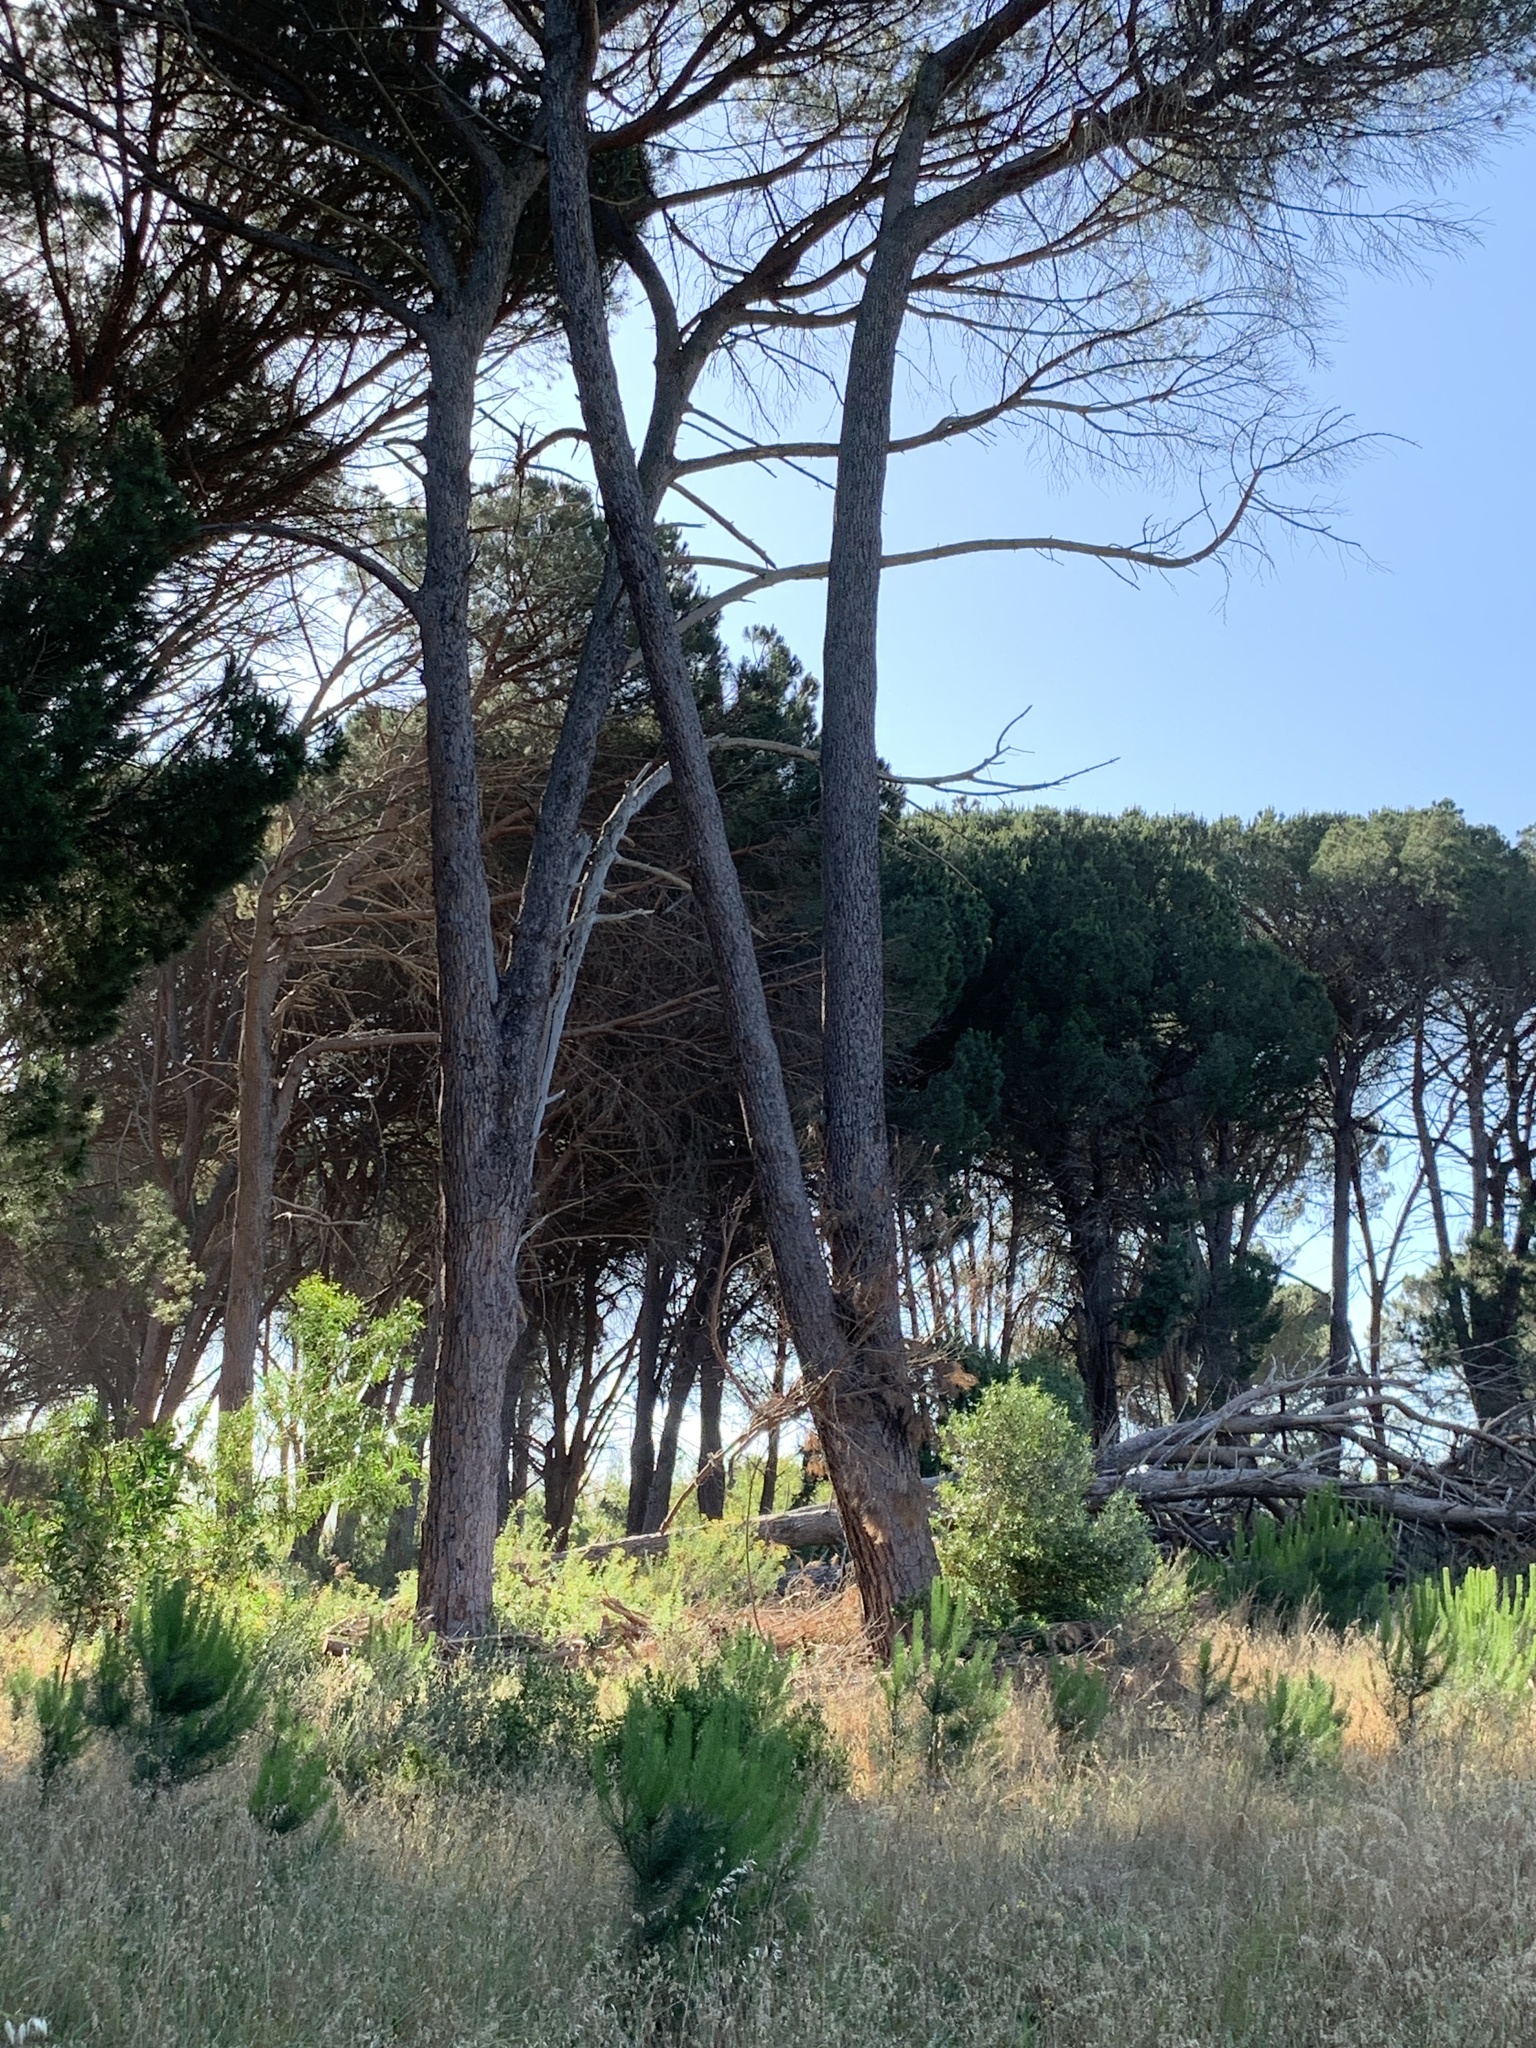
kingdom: Plantae
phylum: Tracheophyta
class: Pinopsida
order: Pinales
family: Pinaceae
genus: Pinus
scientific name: Pinus pinea
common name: Italian stone pine
